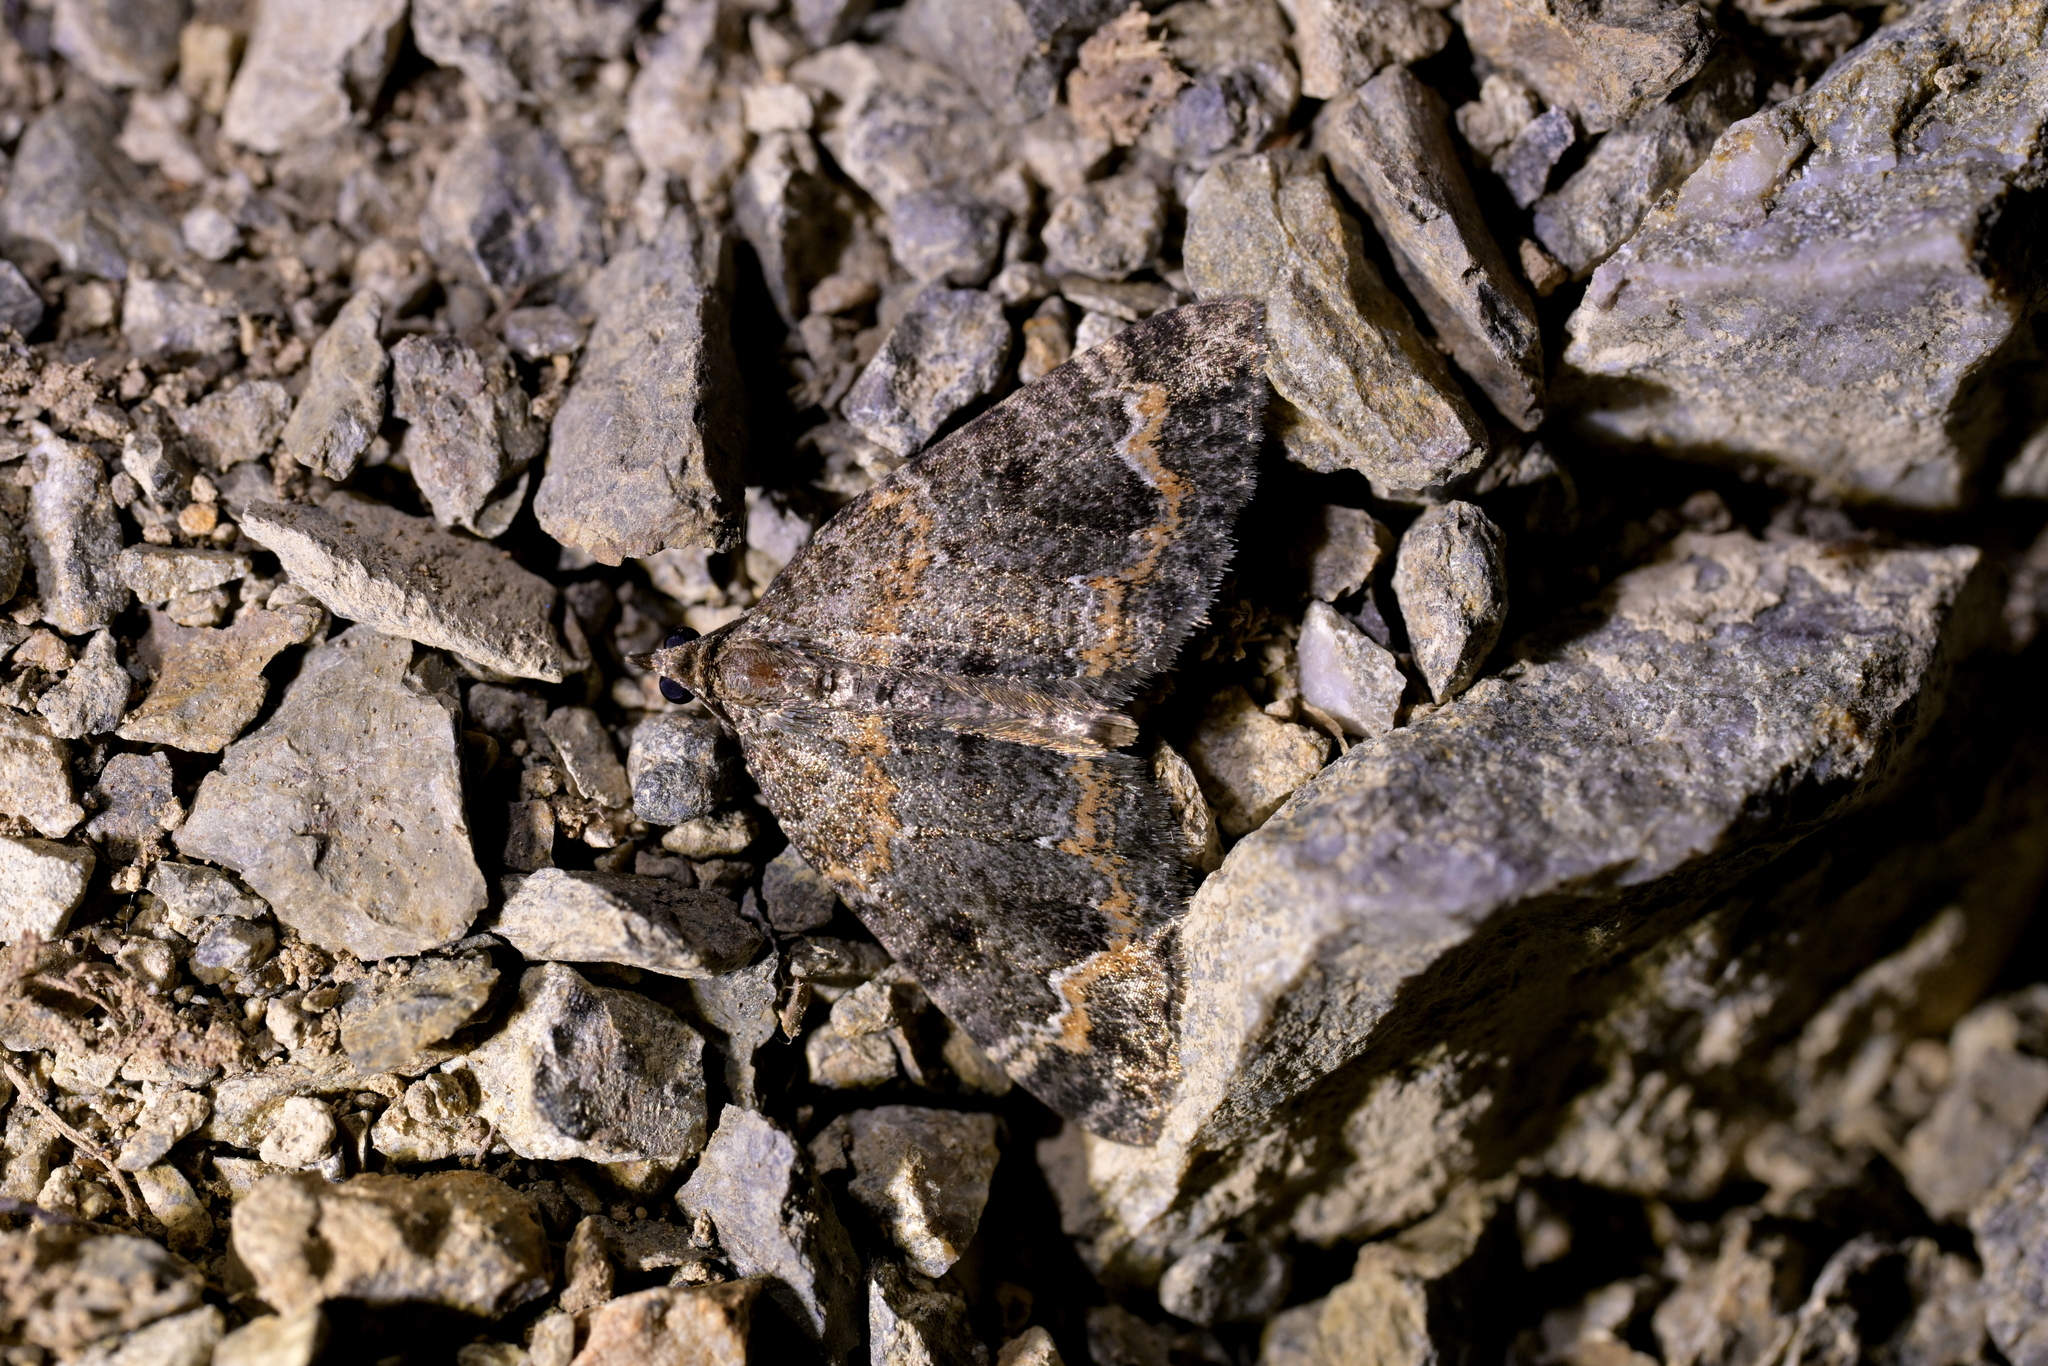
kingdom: Animalia
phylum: Arthropoda
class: Insecta
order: Lepidoptera
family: Geometridae
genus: Hydriomena
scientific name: Hydriomena hemizona
